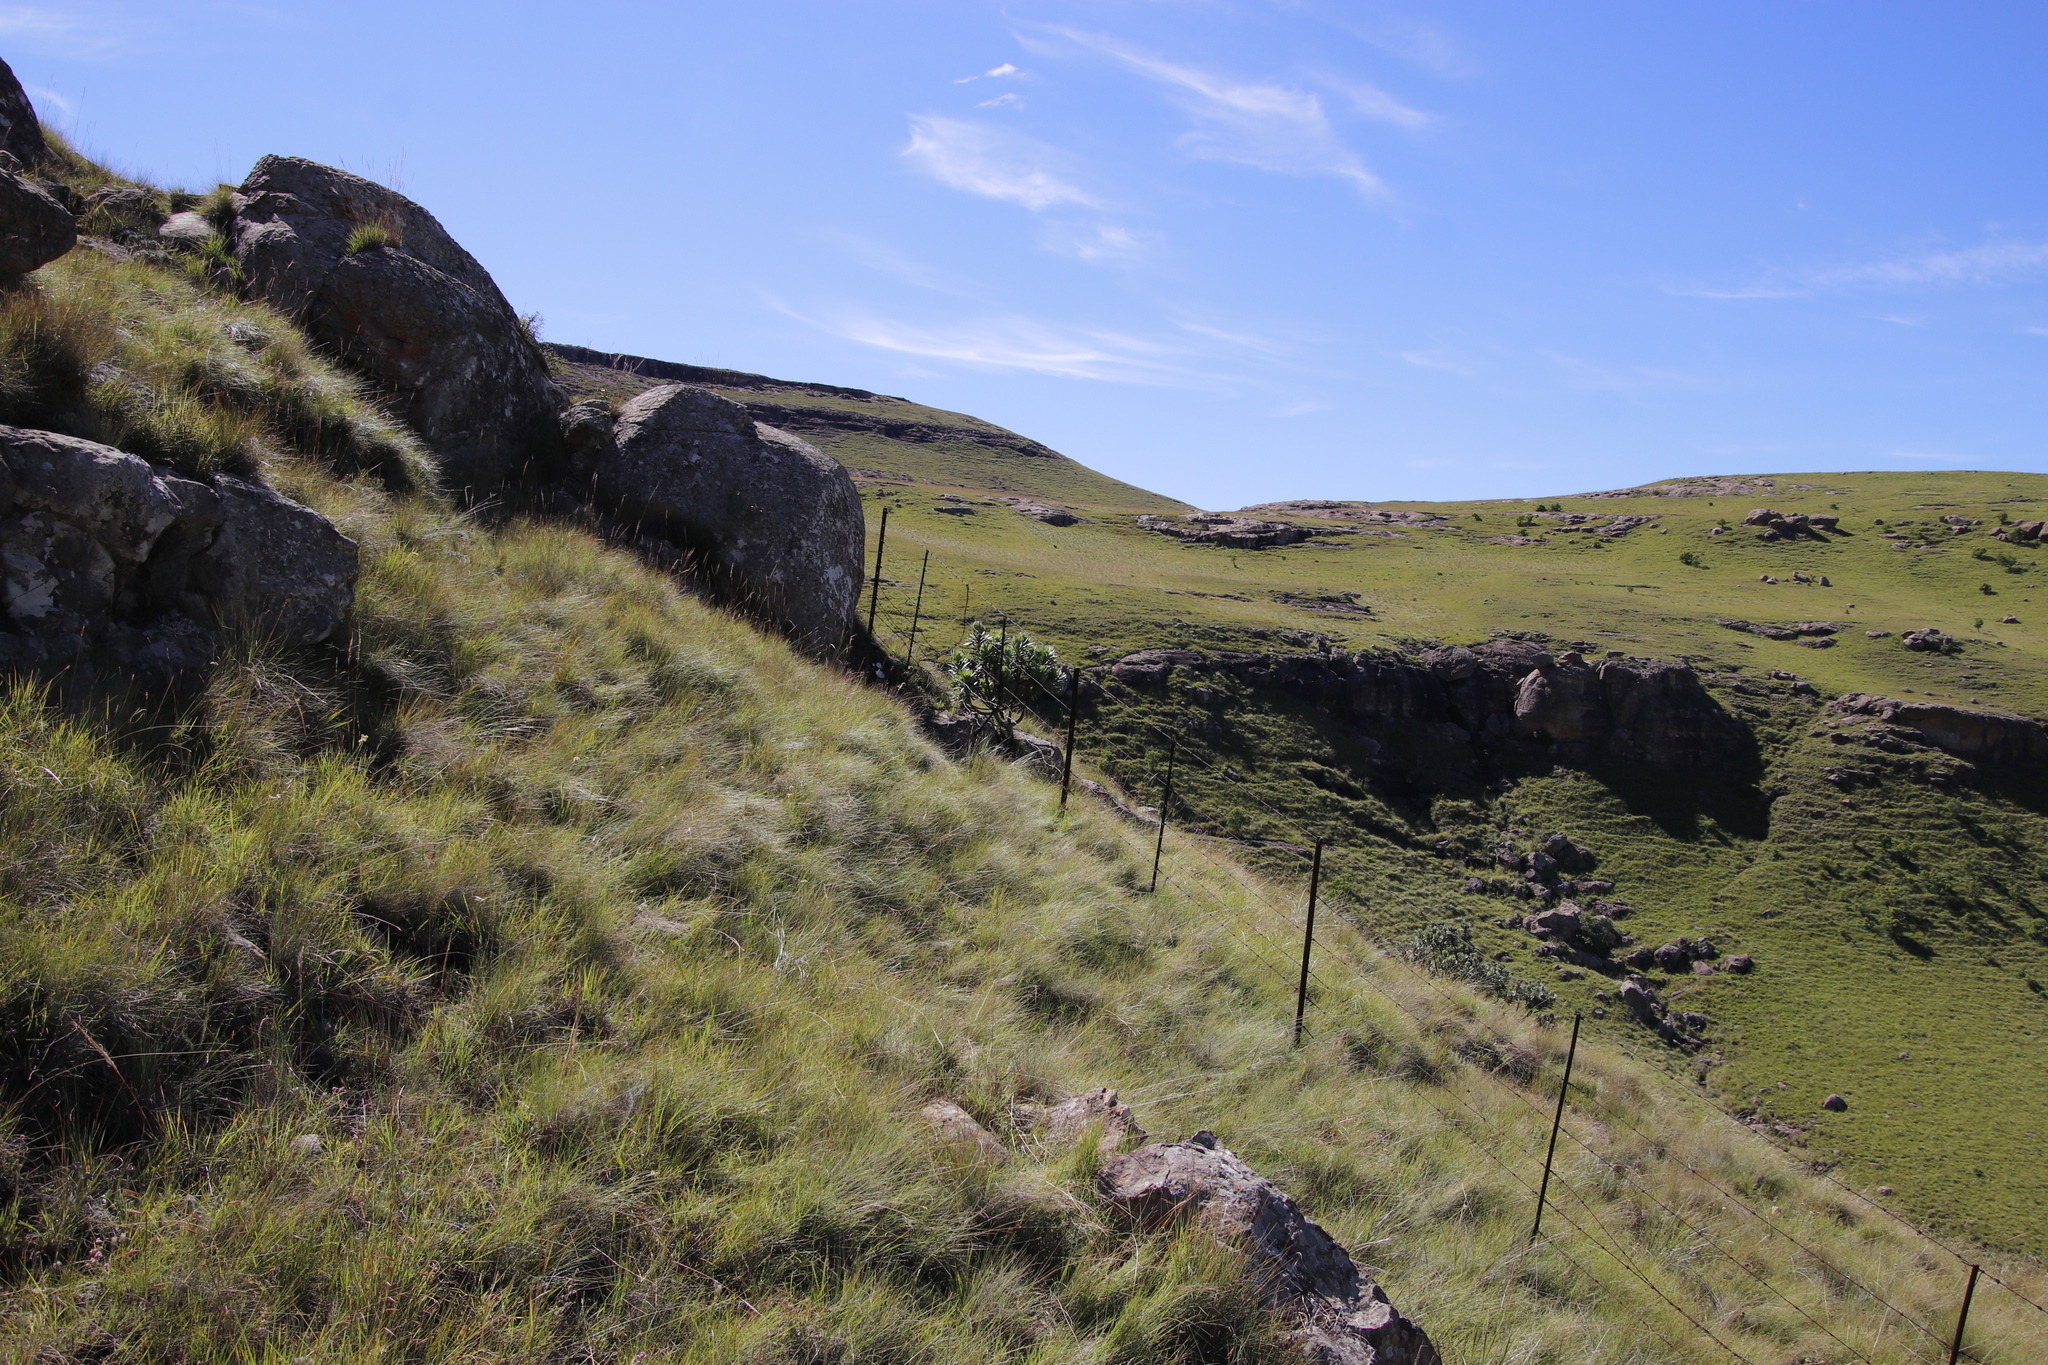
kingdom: Plantae
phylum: Tracheophyta
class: Magnoliopsida
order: Proteales
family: Proteaceae
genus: Protea
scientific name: Protea roupelliae
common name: Silver sugarbush
